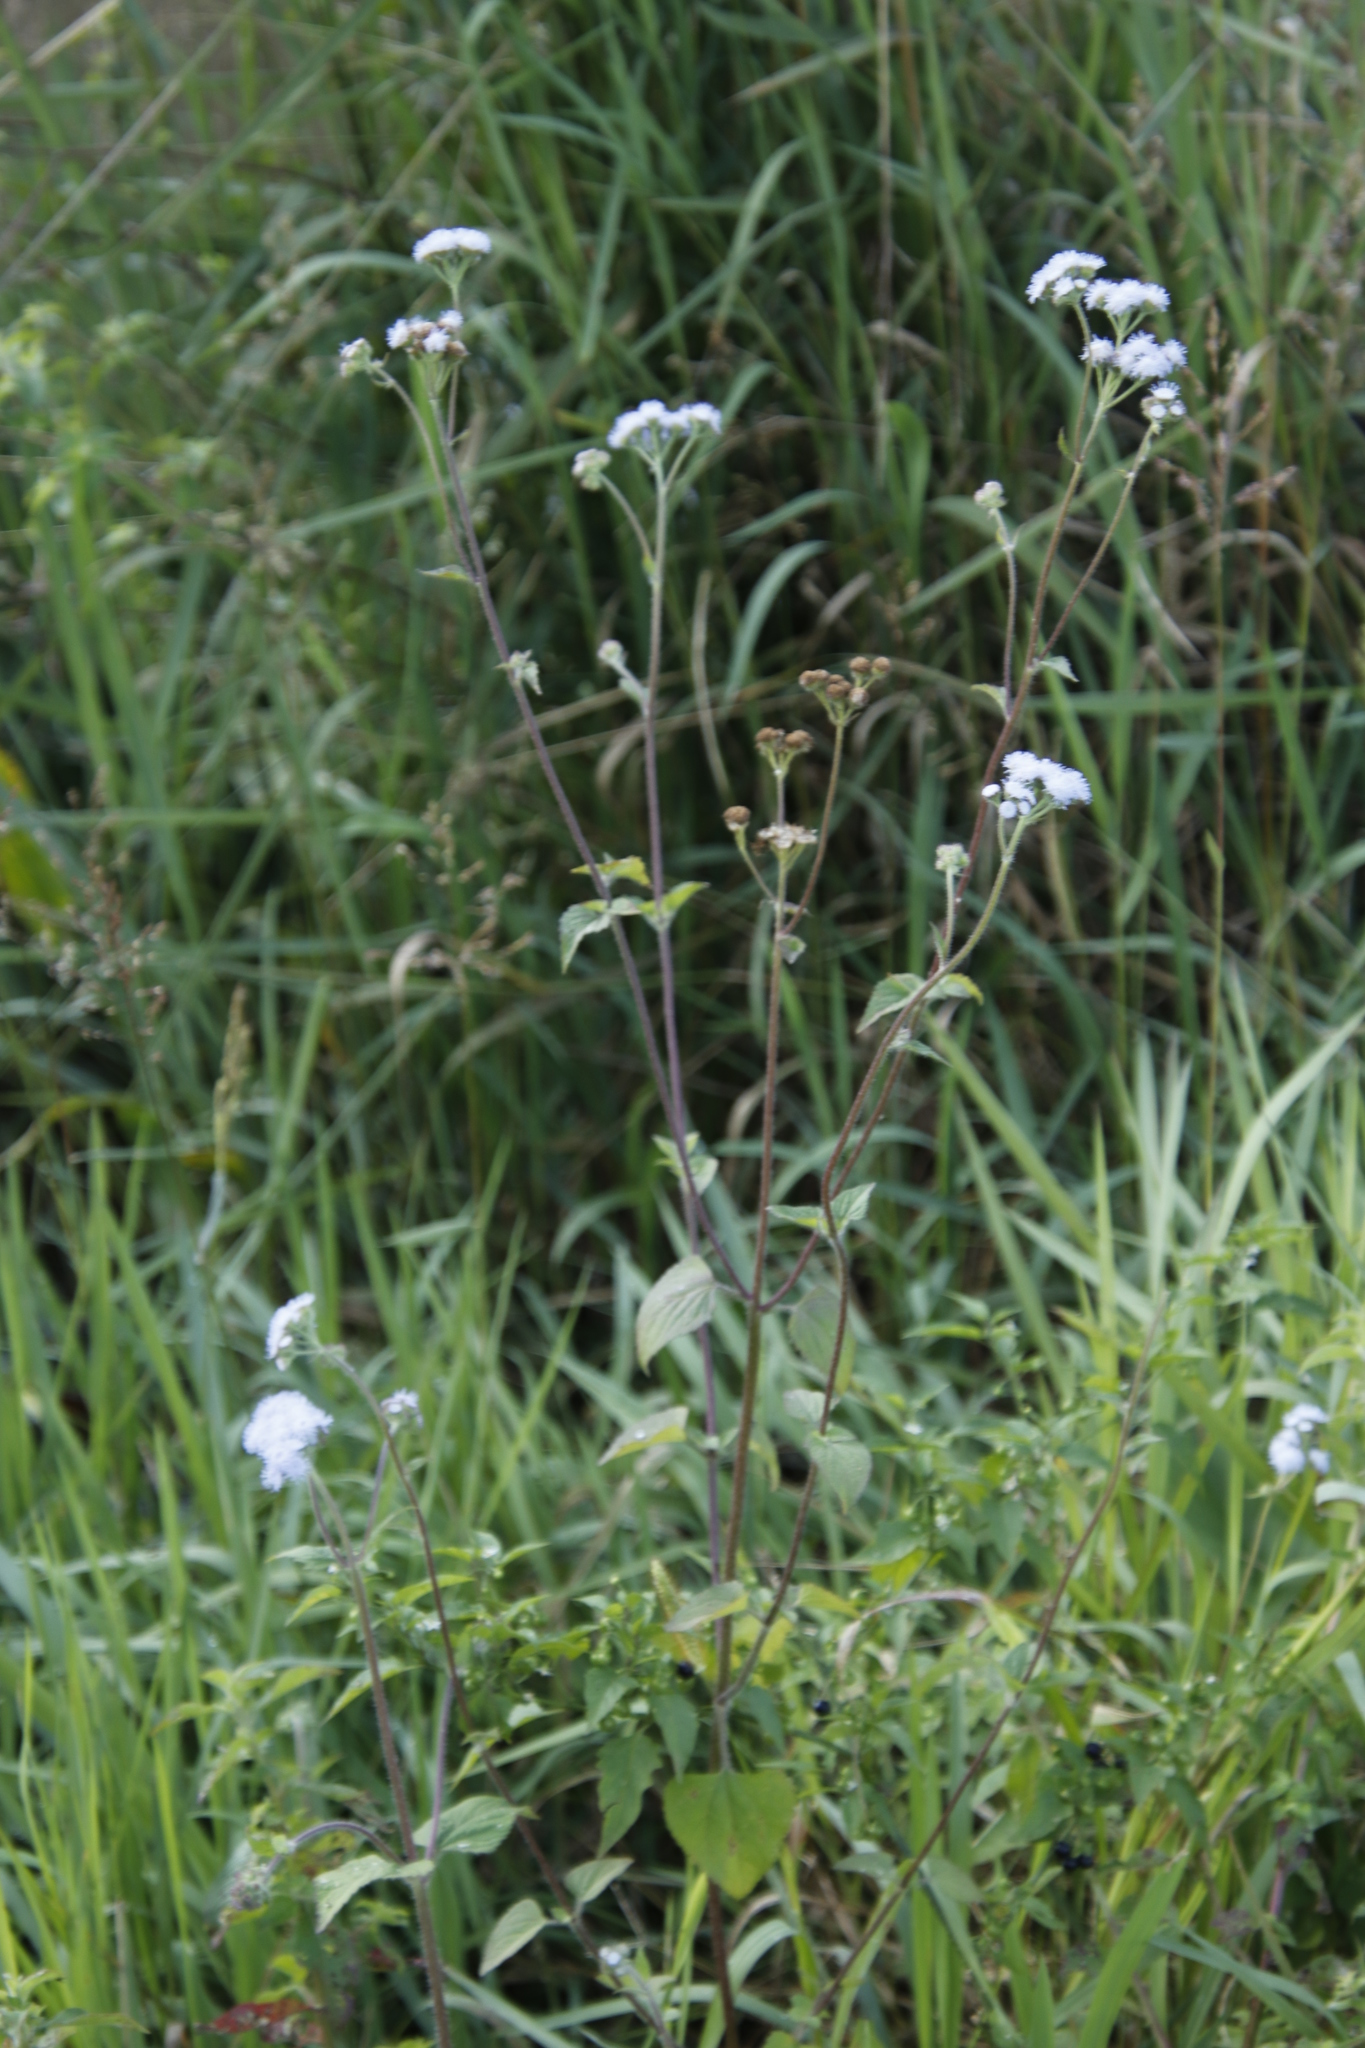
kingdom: Plantae
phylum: Tracheophyta
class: Magnoliopsida
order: Asterales
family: Asteraceae
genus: Ageratum
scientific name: Ageratum houstonianum
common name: Bluemink
